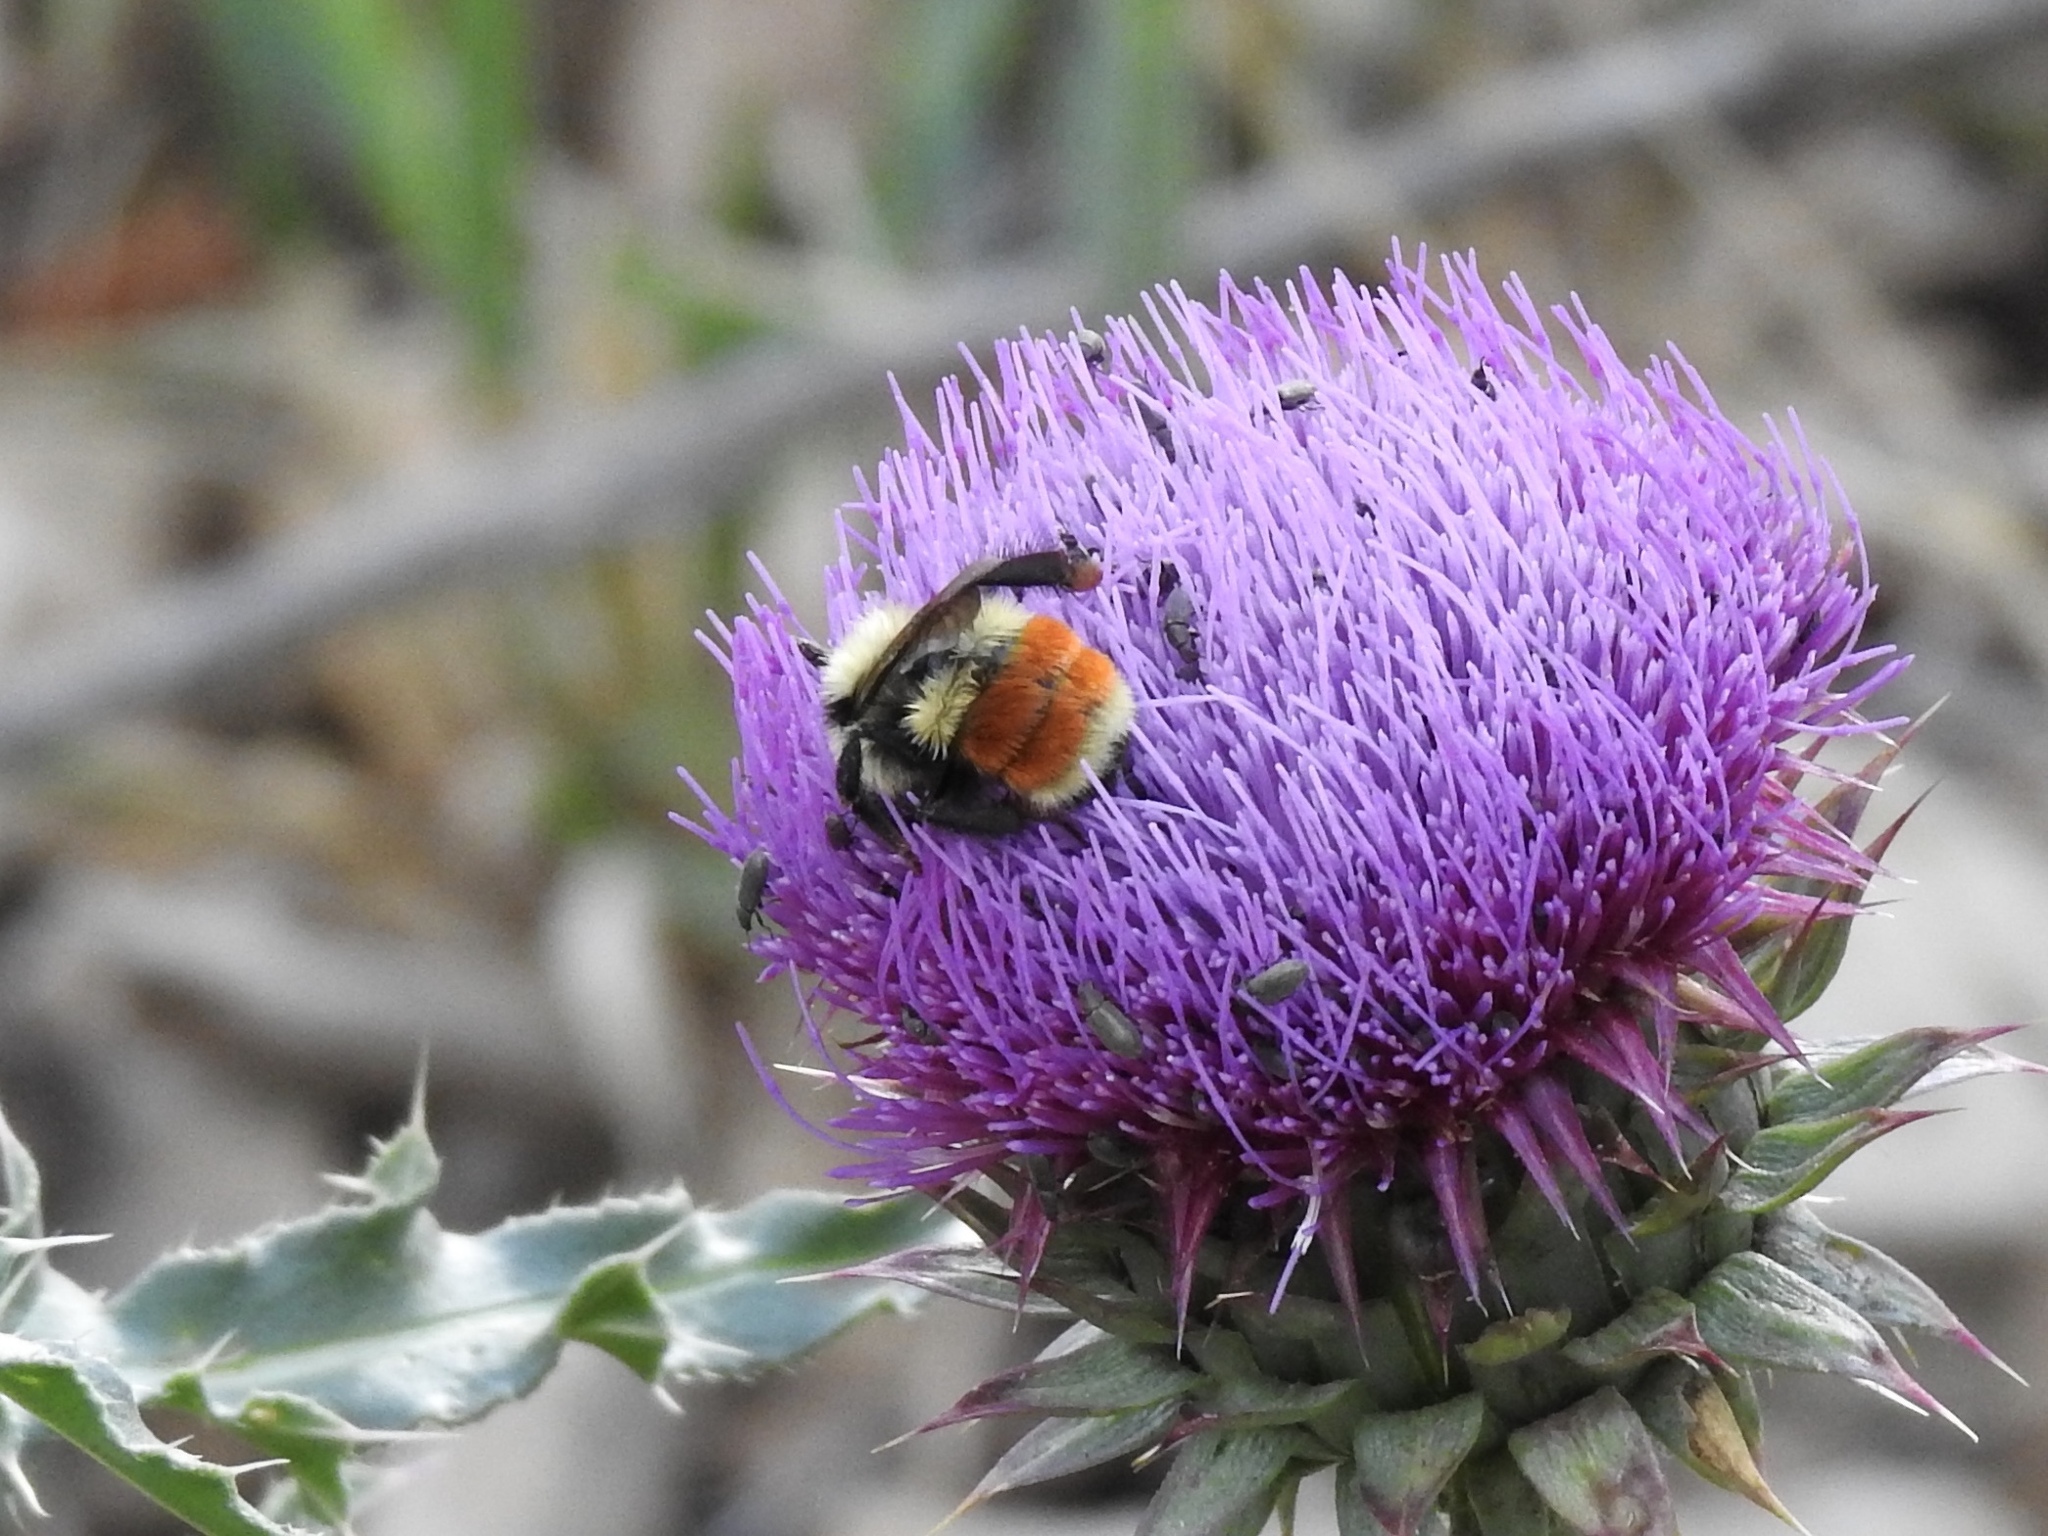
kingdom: Animalia
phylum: Arthropoda
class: Insecta
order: Hymenoptera
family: Apidae
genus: Bombus
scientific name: Bombus huntii
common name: Hunt bumble bee
